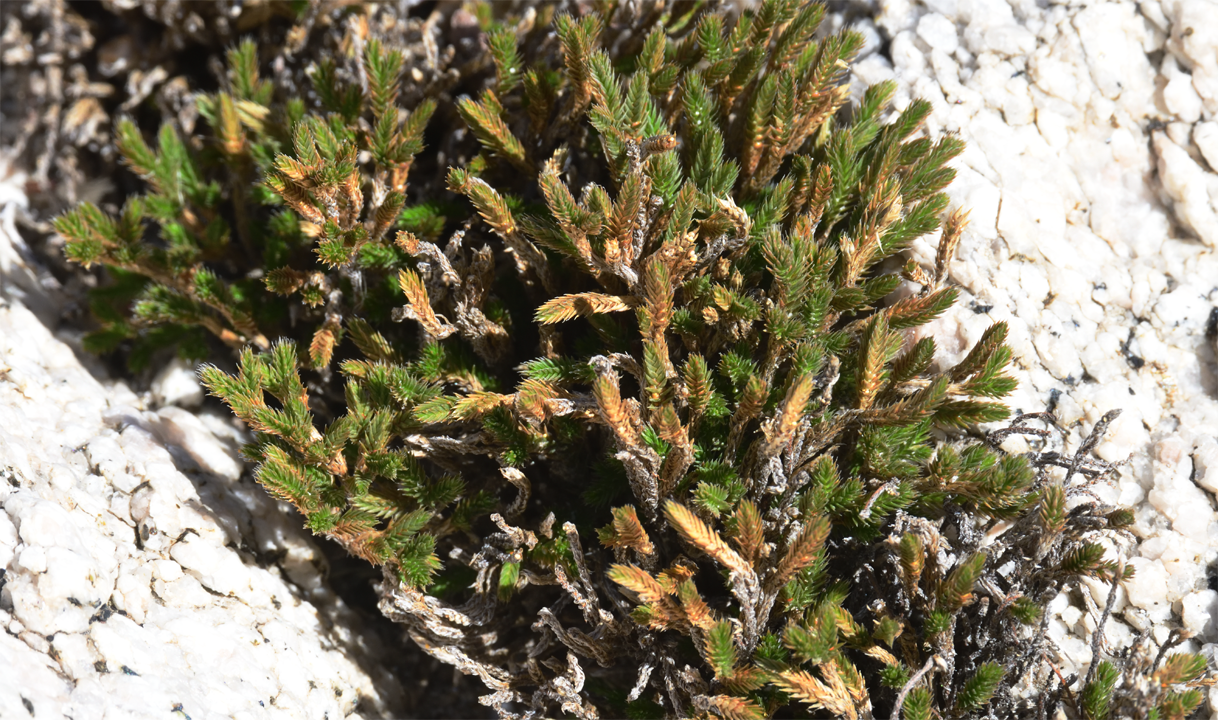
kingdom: Plantae
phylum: Tracheophyta
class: Lycopodiopsida
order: Selaginellales
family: Selaginellaceae
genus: Selaginella
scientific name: Selaginella bigelovii
